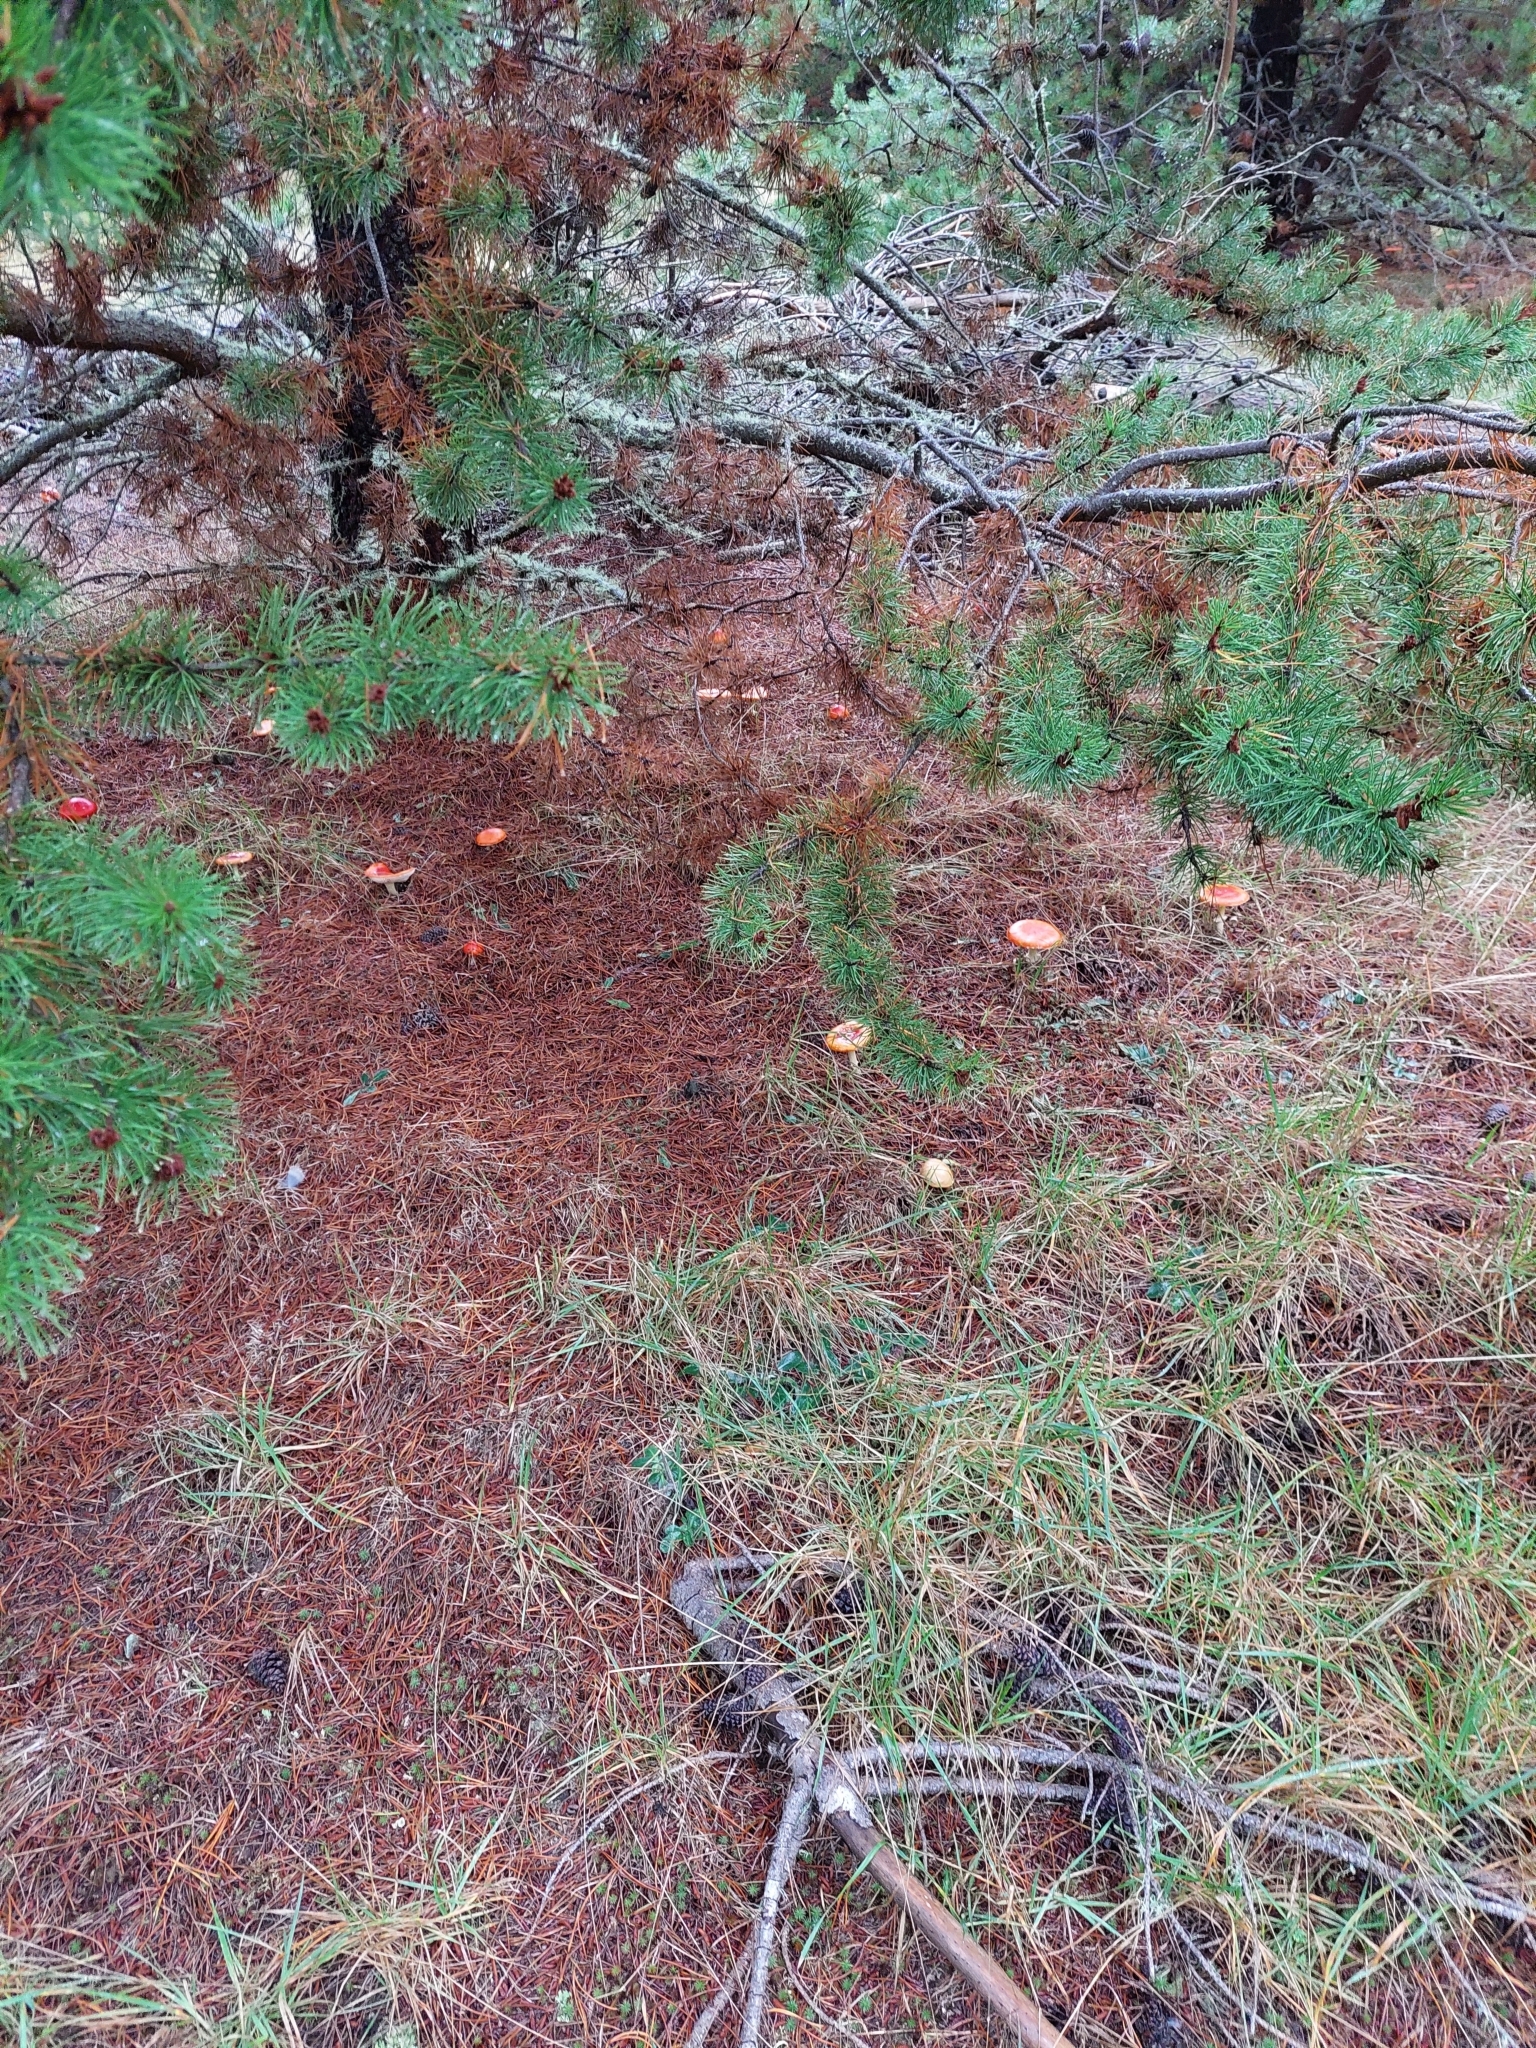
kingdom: Fungi
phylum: Basidiomycota
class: Agaricomycetes
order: Agaricales
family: Amanitaceae
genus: Amanita
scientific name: Amanita muscaria
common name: Fly agaric
